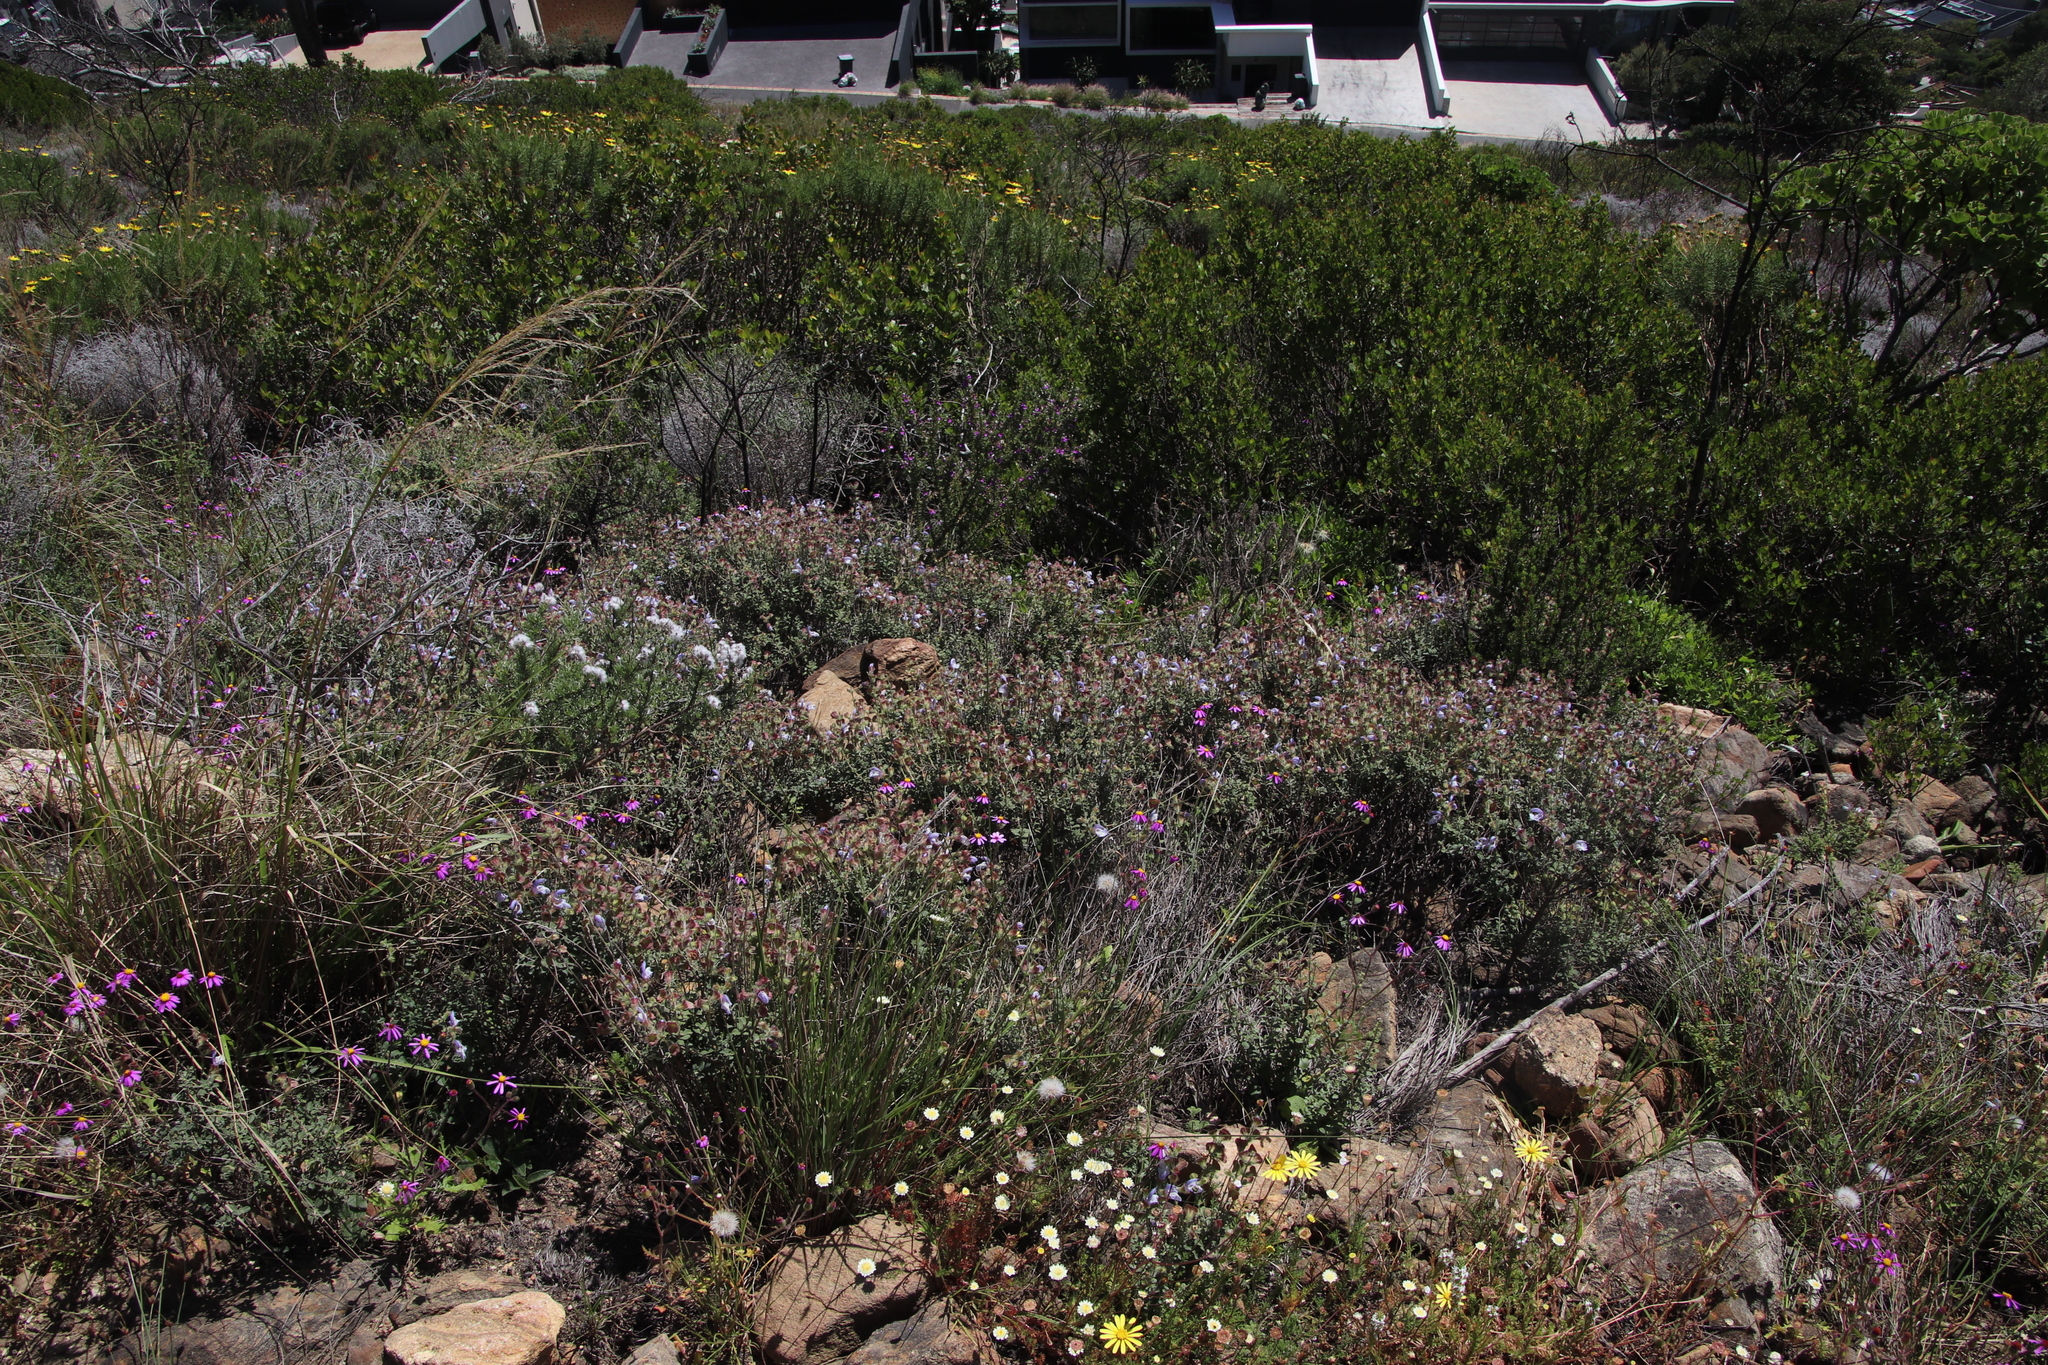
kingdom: Plantae
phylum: Tracheophyta
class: Magnoliopsida
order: Lamiales
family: Lamiaceae
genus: Salvia
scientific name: Salvia africana
